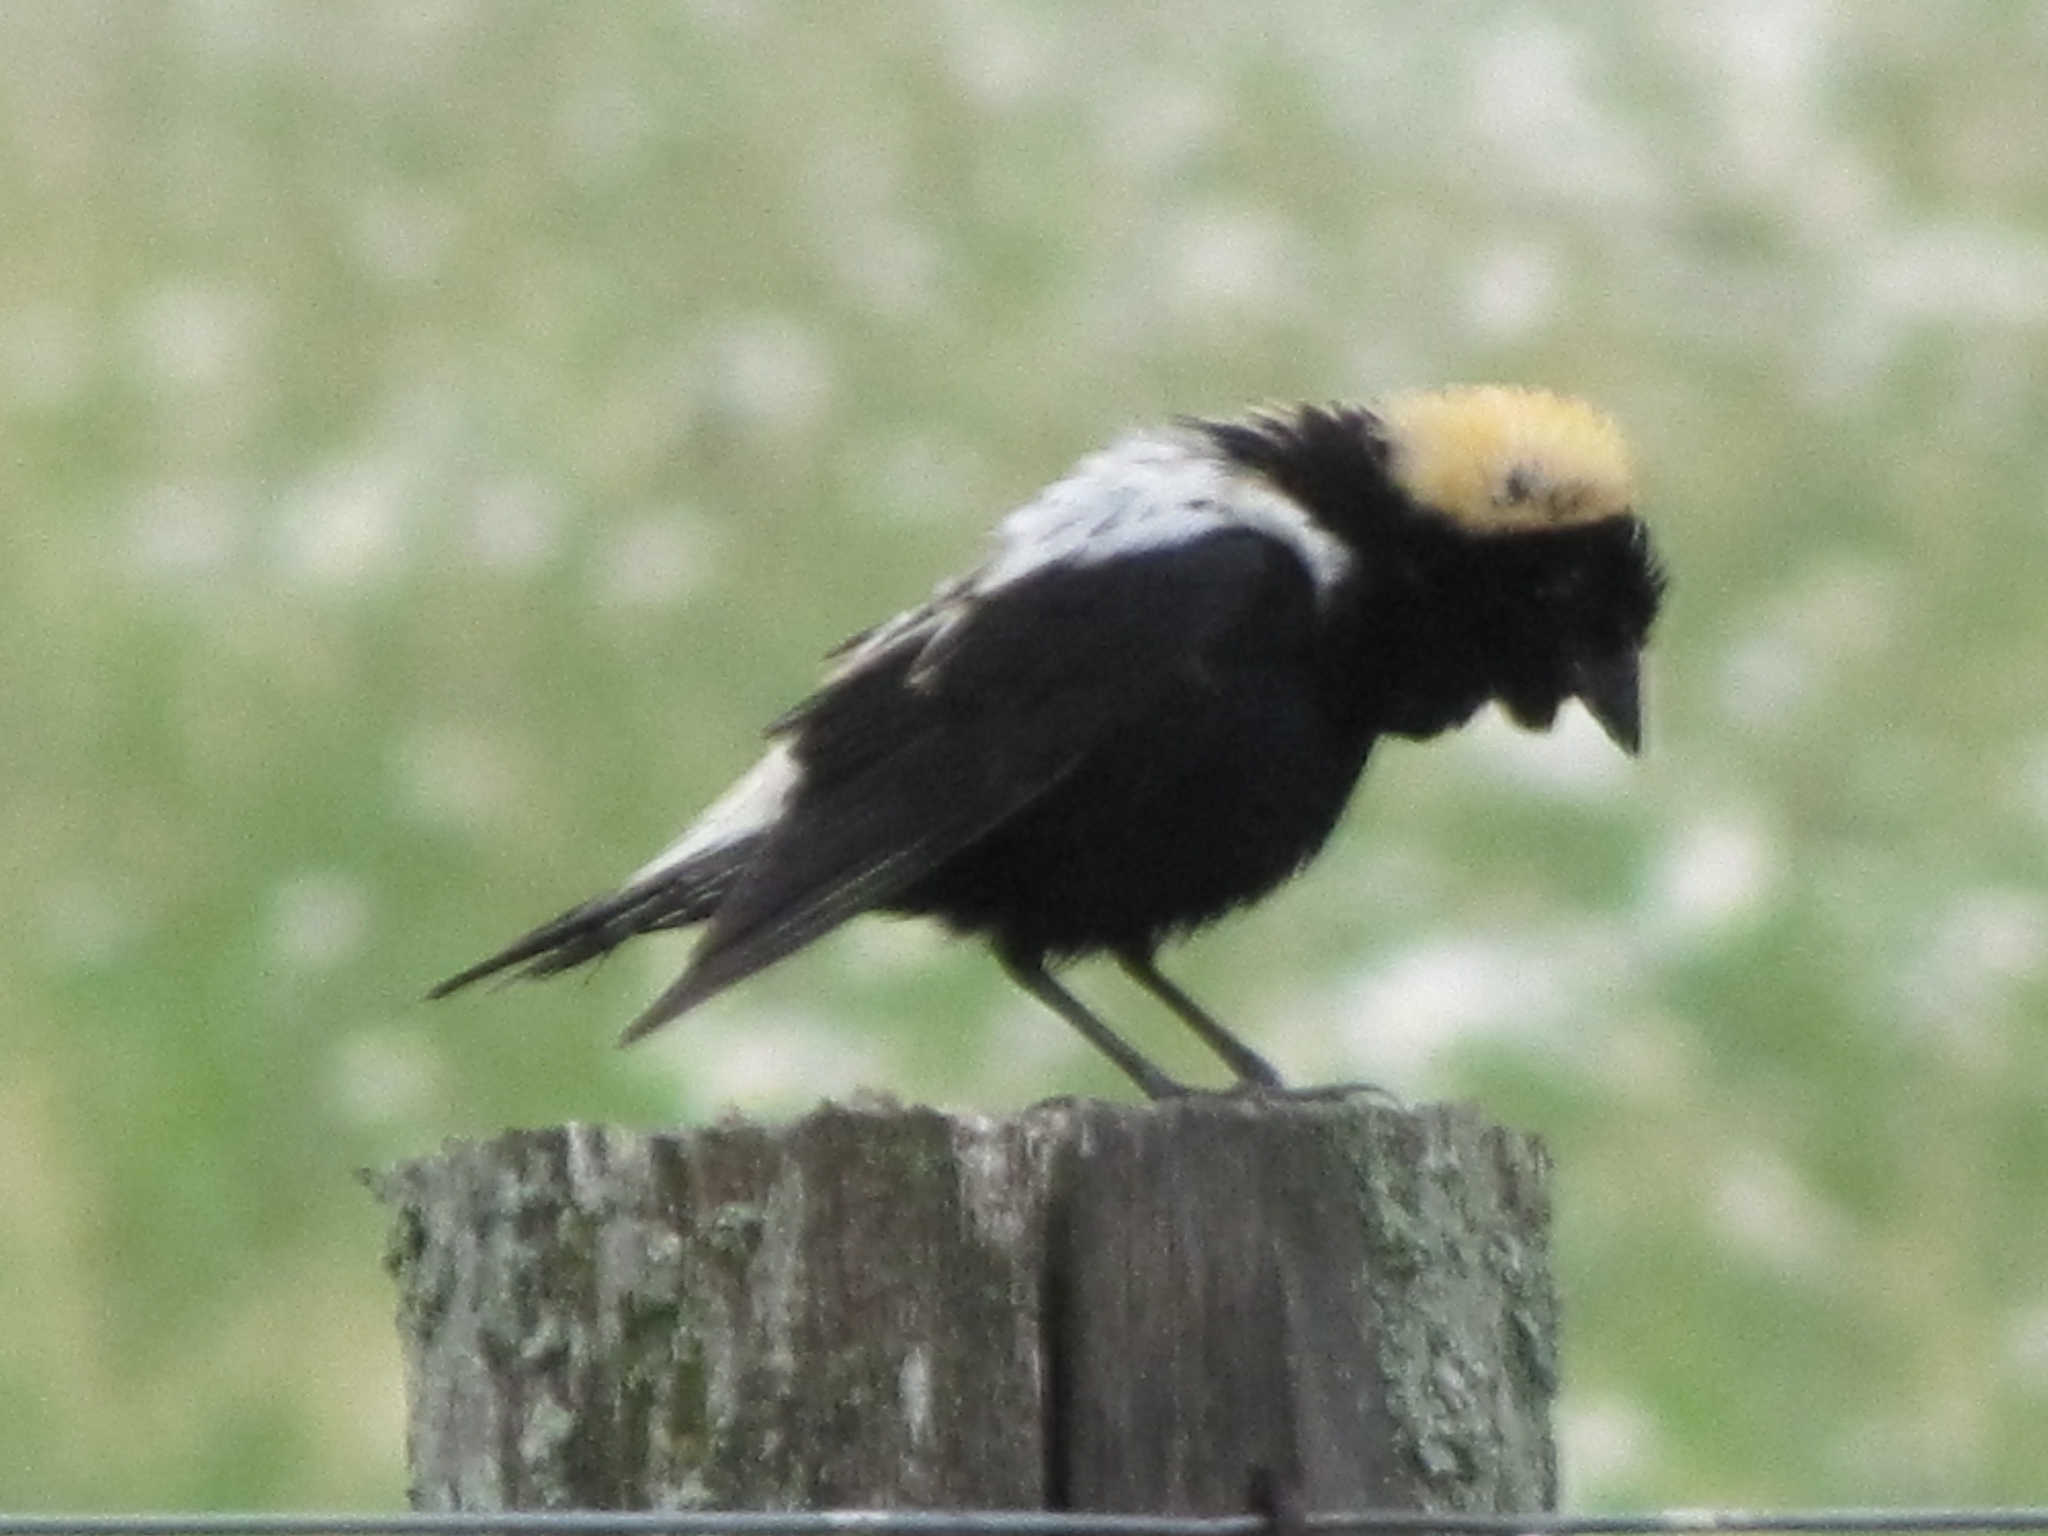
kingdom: Animalia
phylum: Chordata
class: Aves
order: Passeriformes
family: Icteridae
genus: Dolichonyx
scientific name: Dolichonyx oryzivorus
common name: Bobolink
